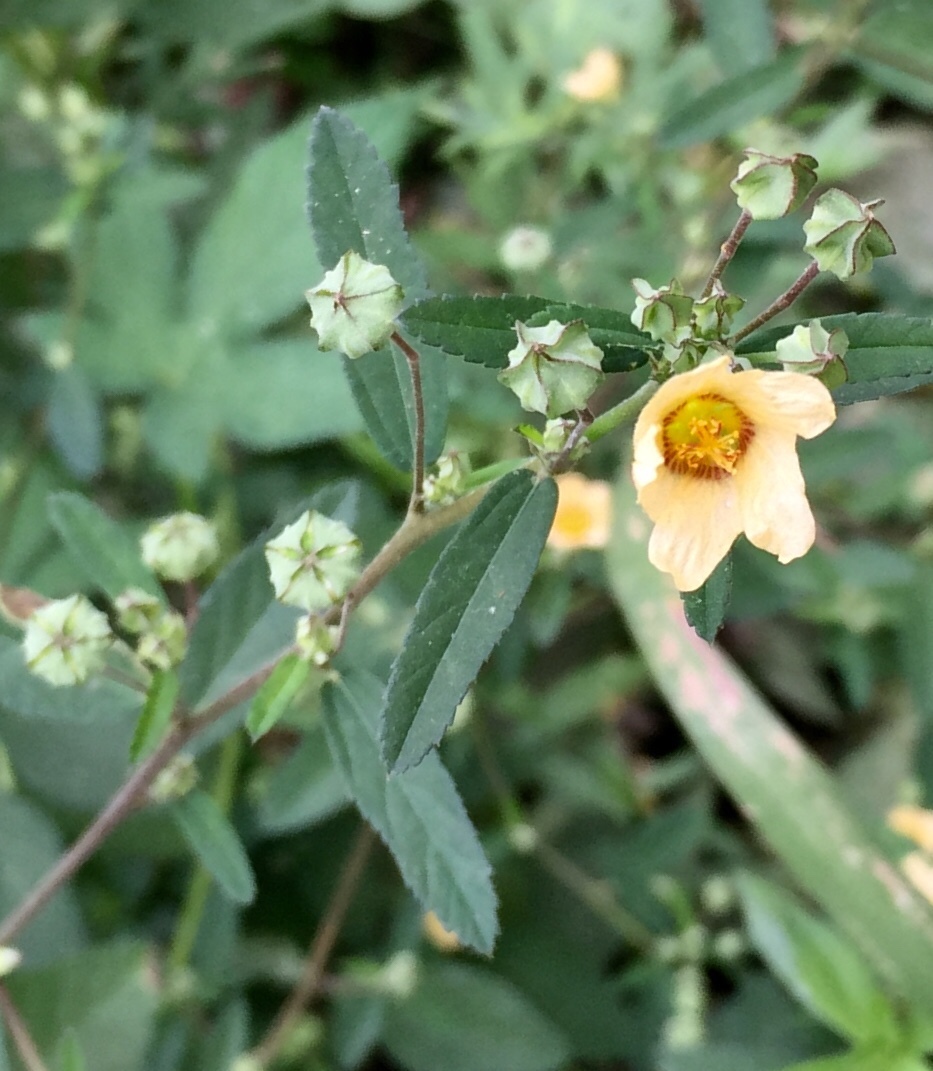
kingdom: Plantae
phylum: Tracheophyta
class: Magnoliopsida
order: Malvales
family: Malvaceae
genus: Sida
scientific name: Sida rhombifolia
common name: Queensland-hemp
